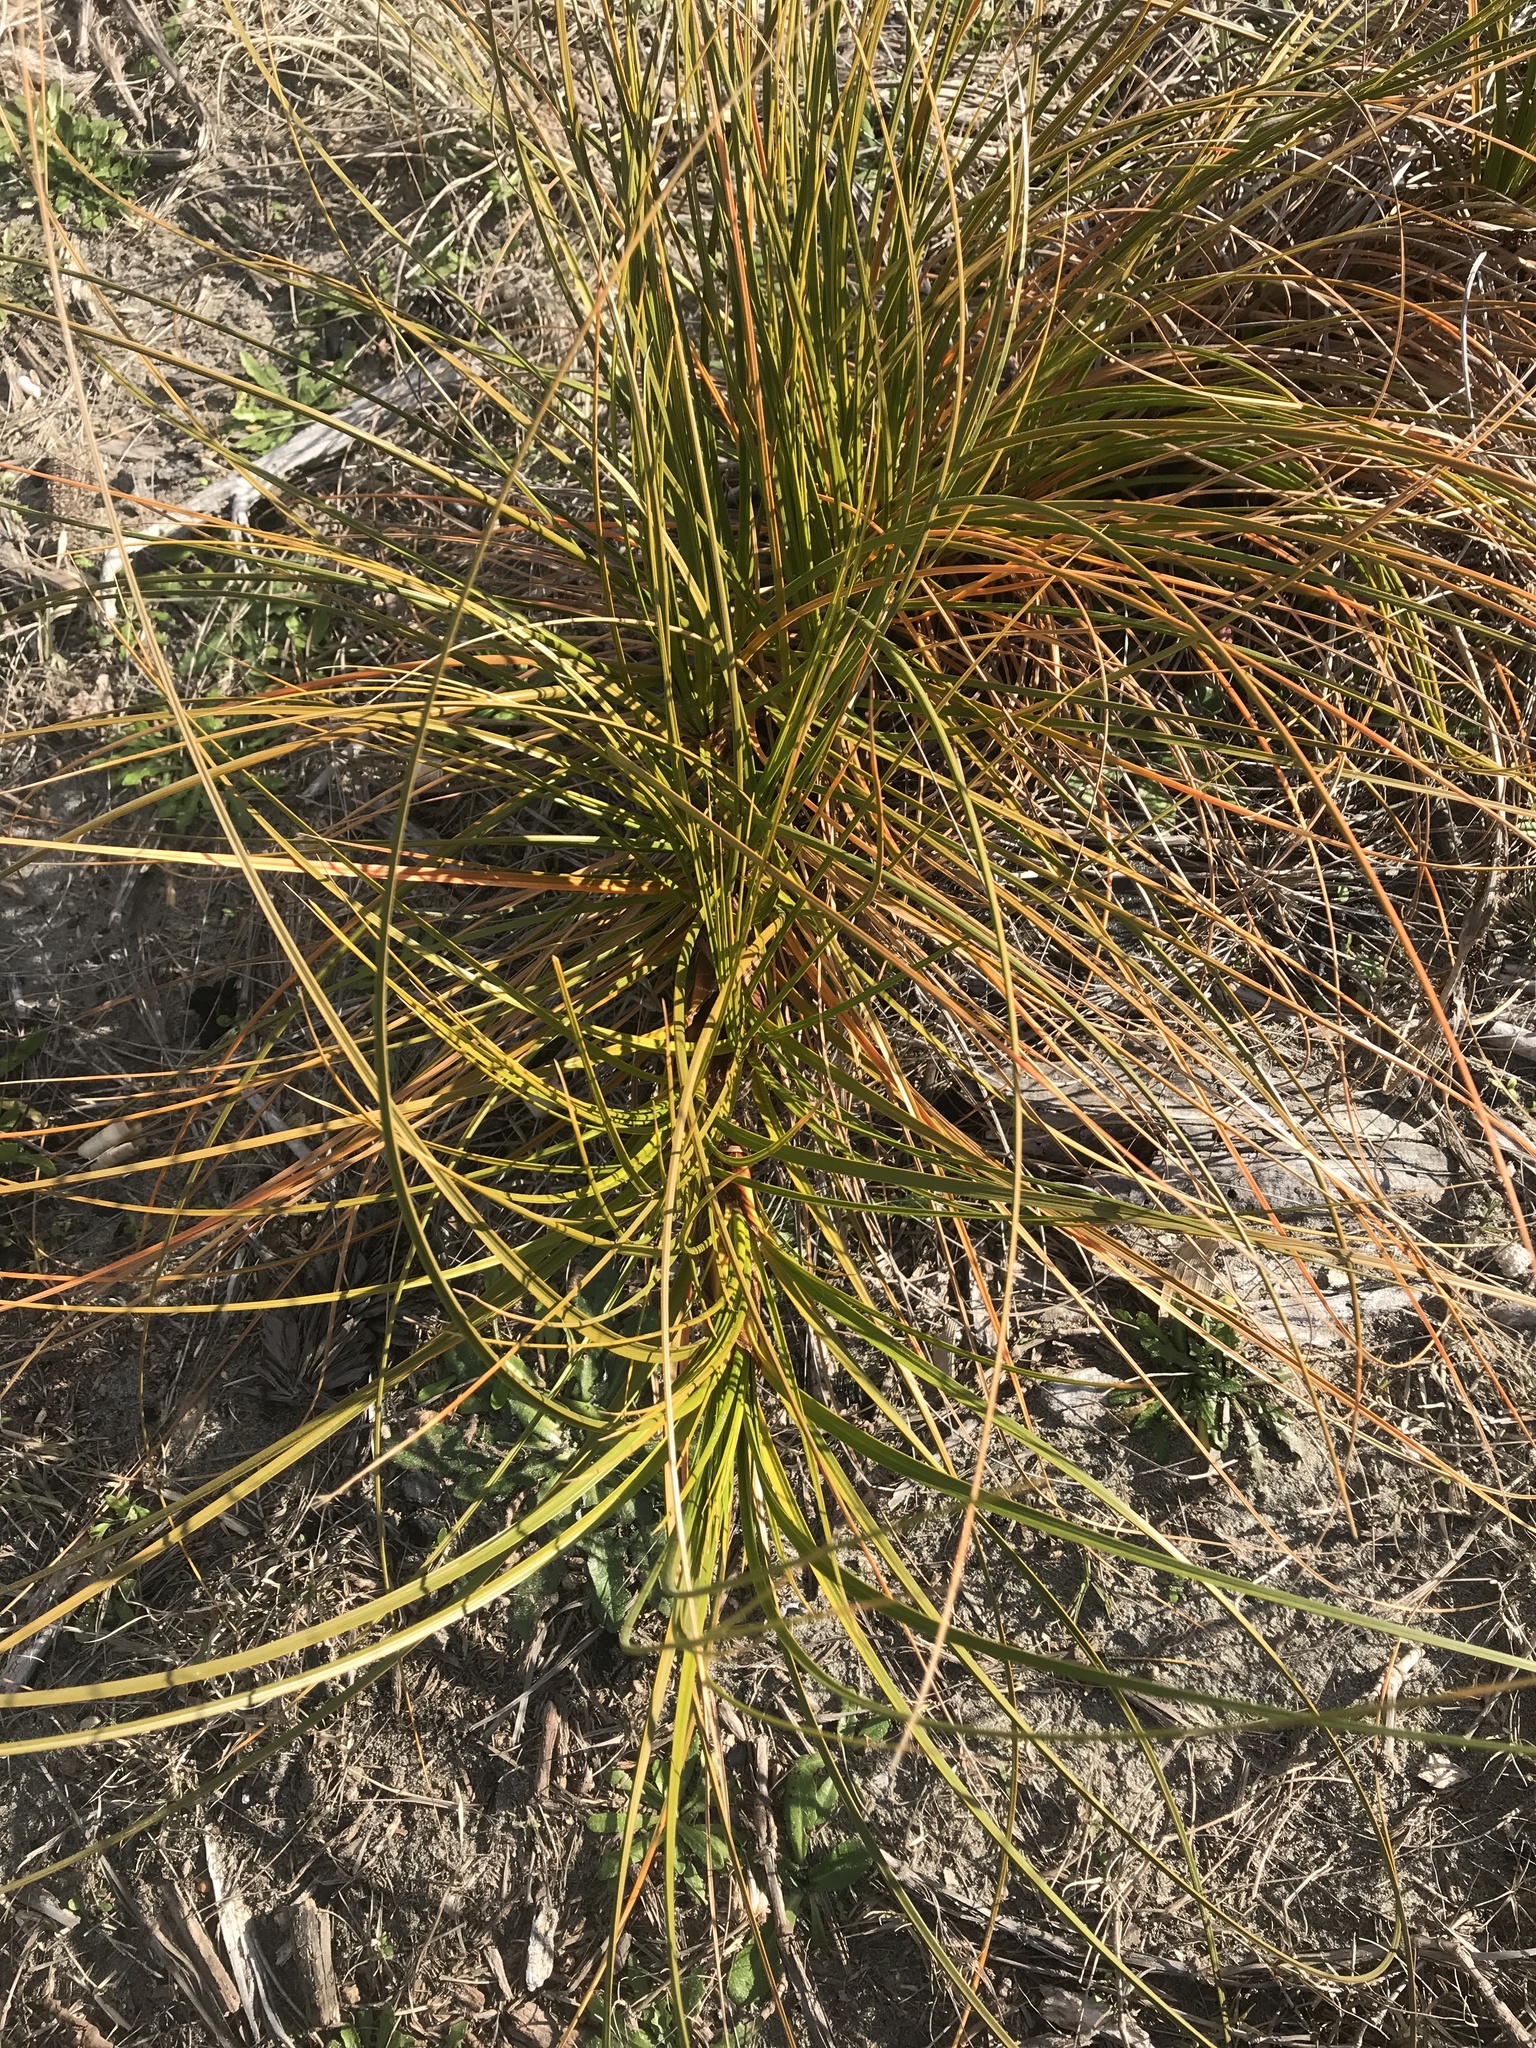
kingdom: Plantae
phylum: Tracheophyta
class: Liliopsida
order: Poales
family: Cyperaceae
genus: Ficinia
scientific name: Ficinia spiralis
